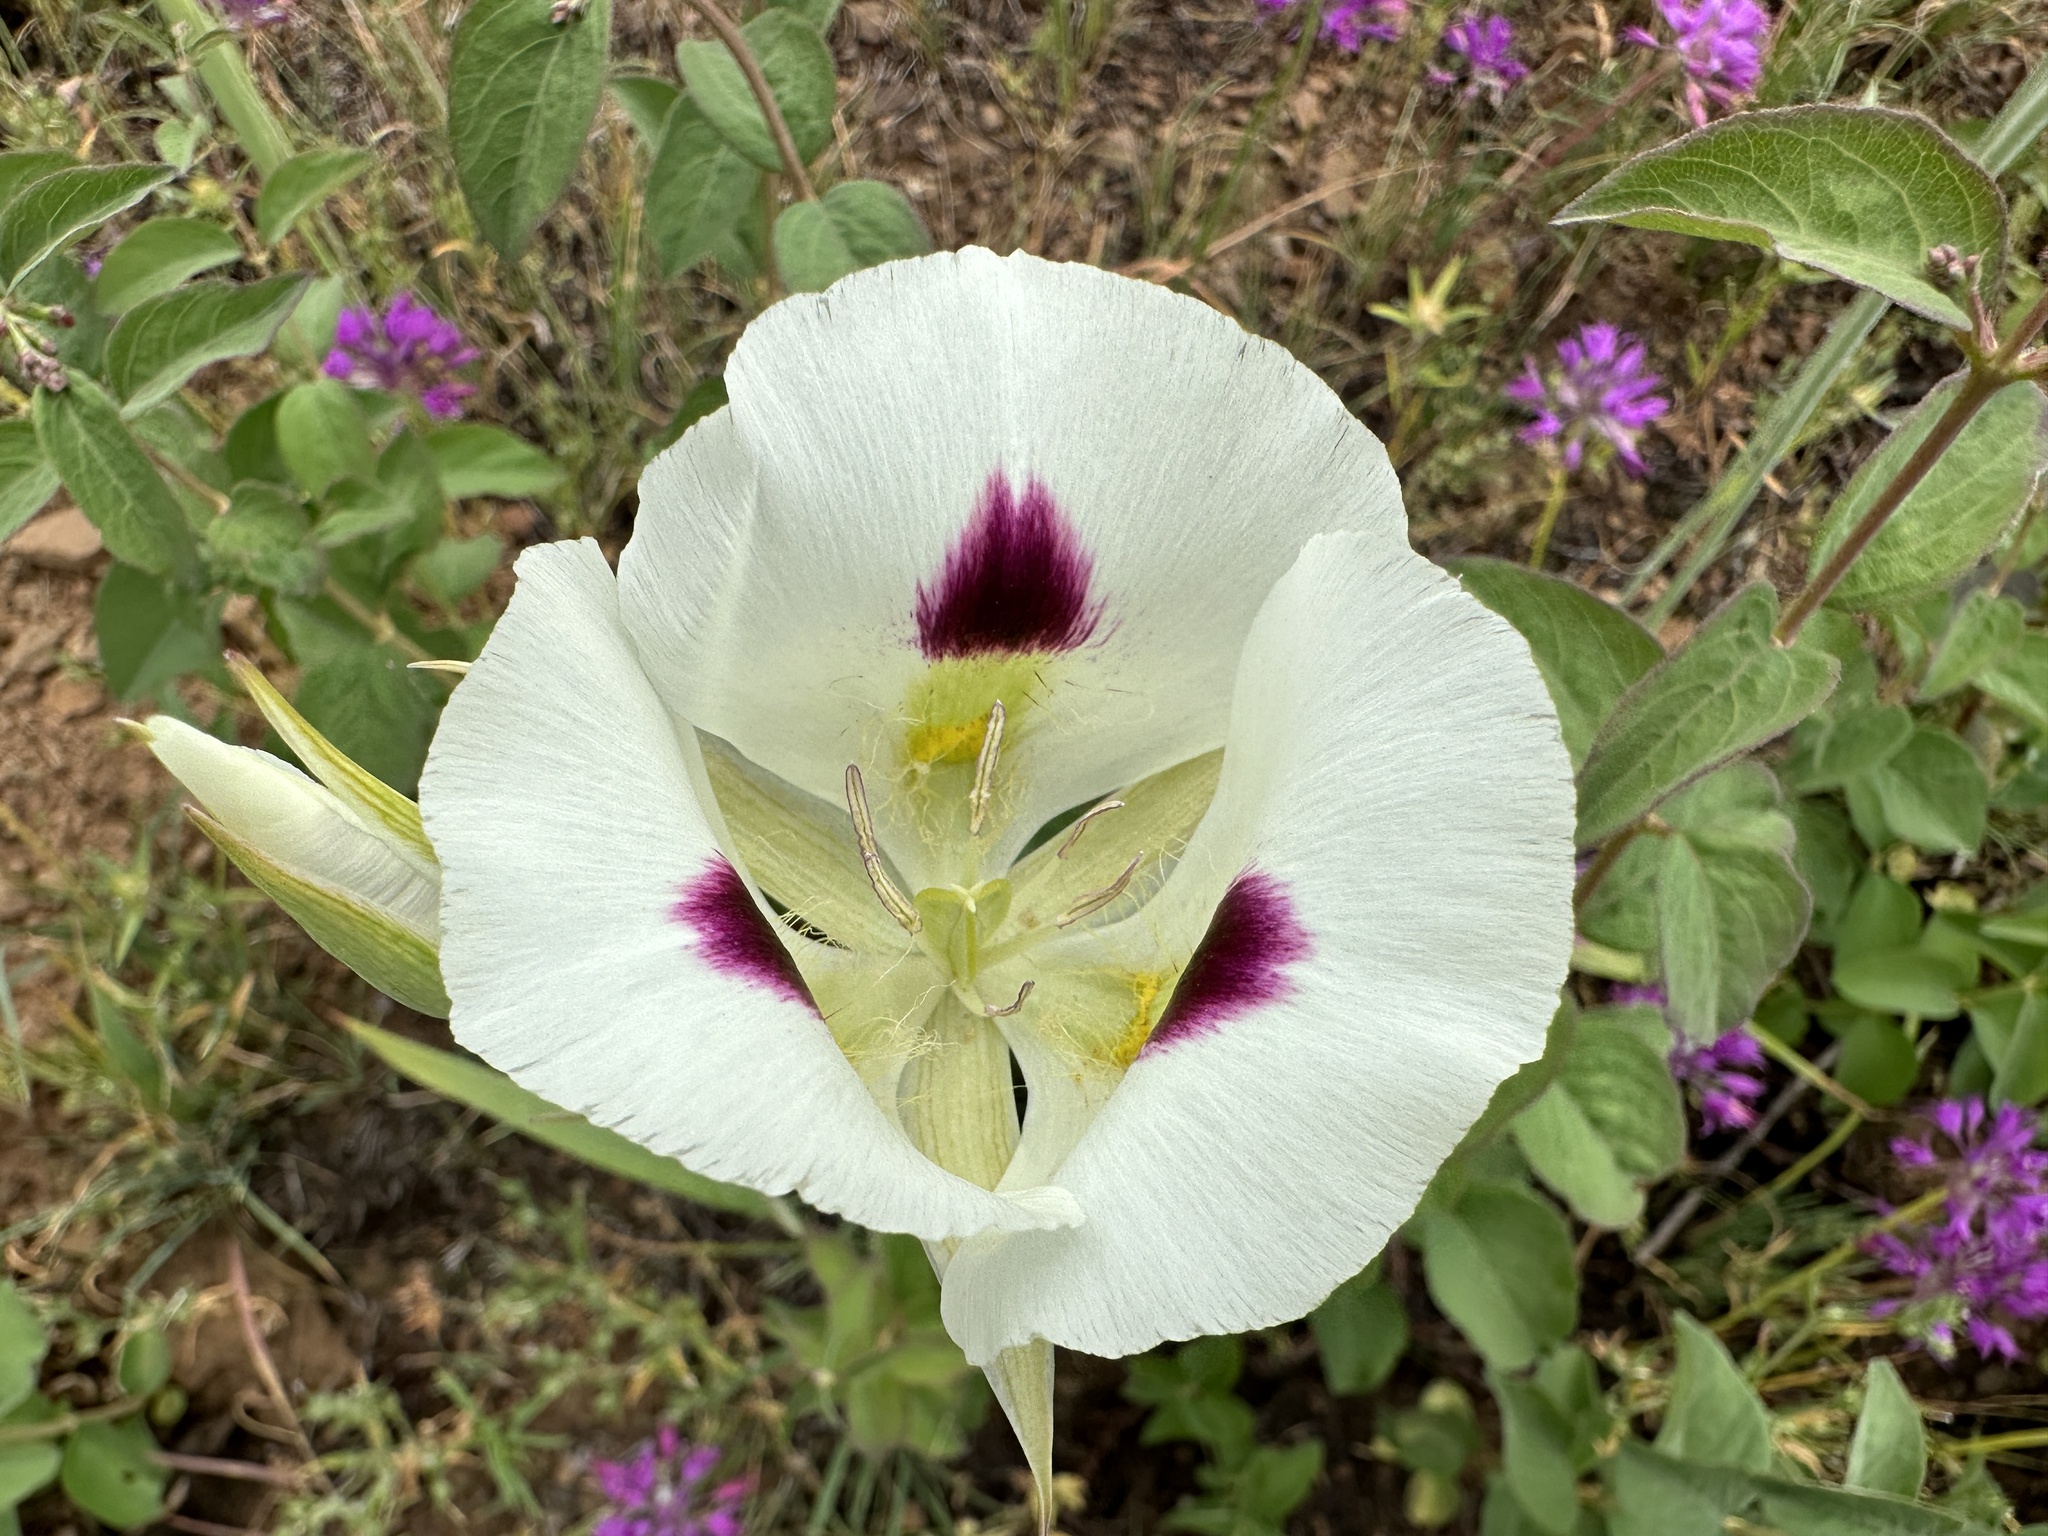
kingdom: Plantae
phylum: Tracheophyta
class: Liliopsida
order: Liliales
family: Liliaceae
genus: Calochortus
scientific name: Calochortus eurycarpus
